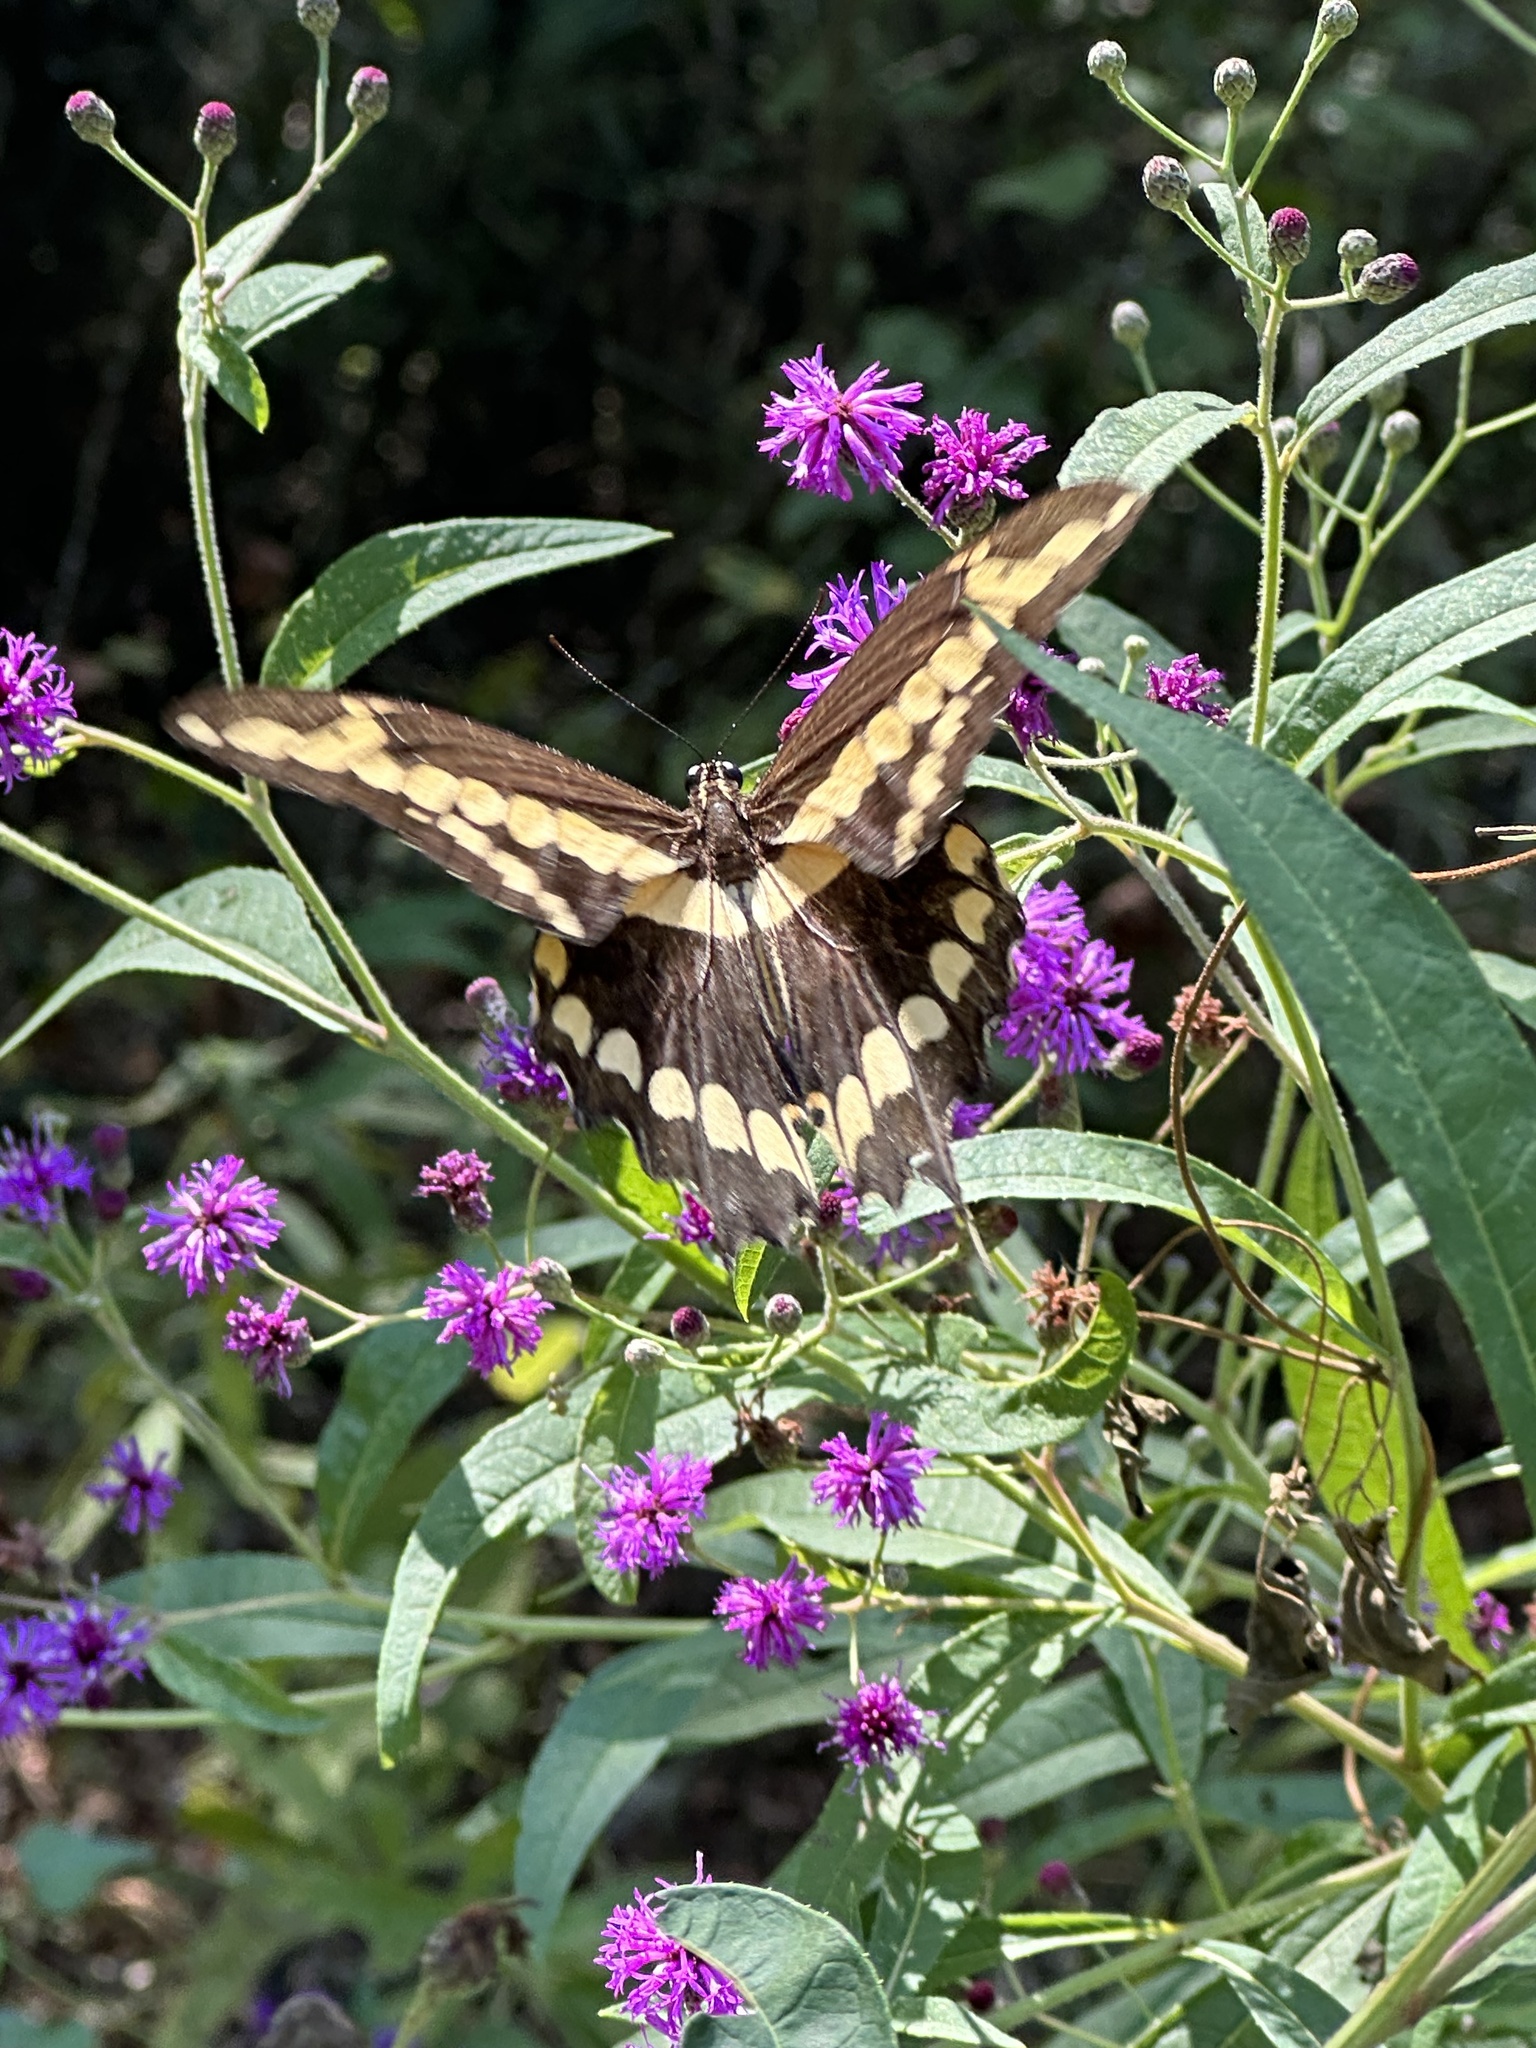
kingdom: Animalia
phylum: Arthropoda
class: Insecta
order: Lepidoptera
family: Papilionidae
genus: Papilio
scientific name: Papilio cresphontes
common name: Giant swallowtail
